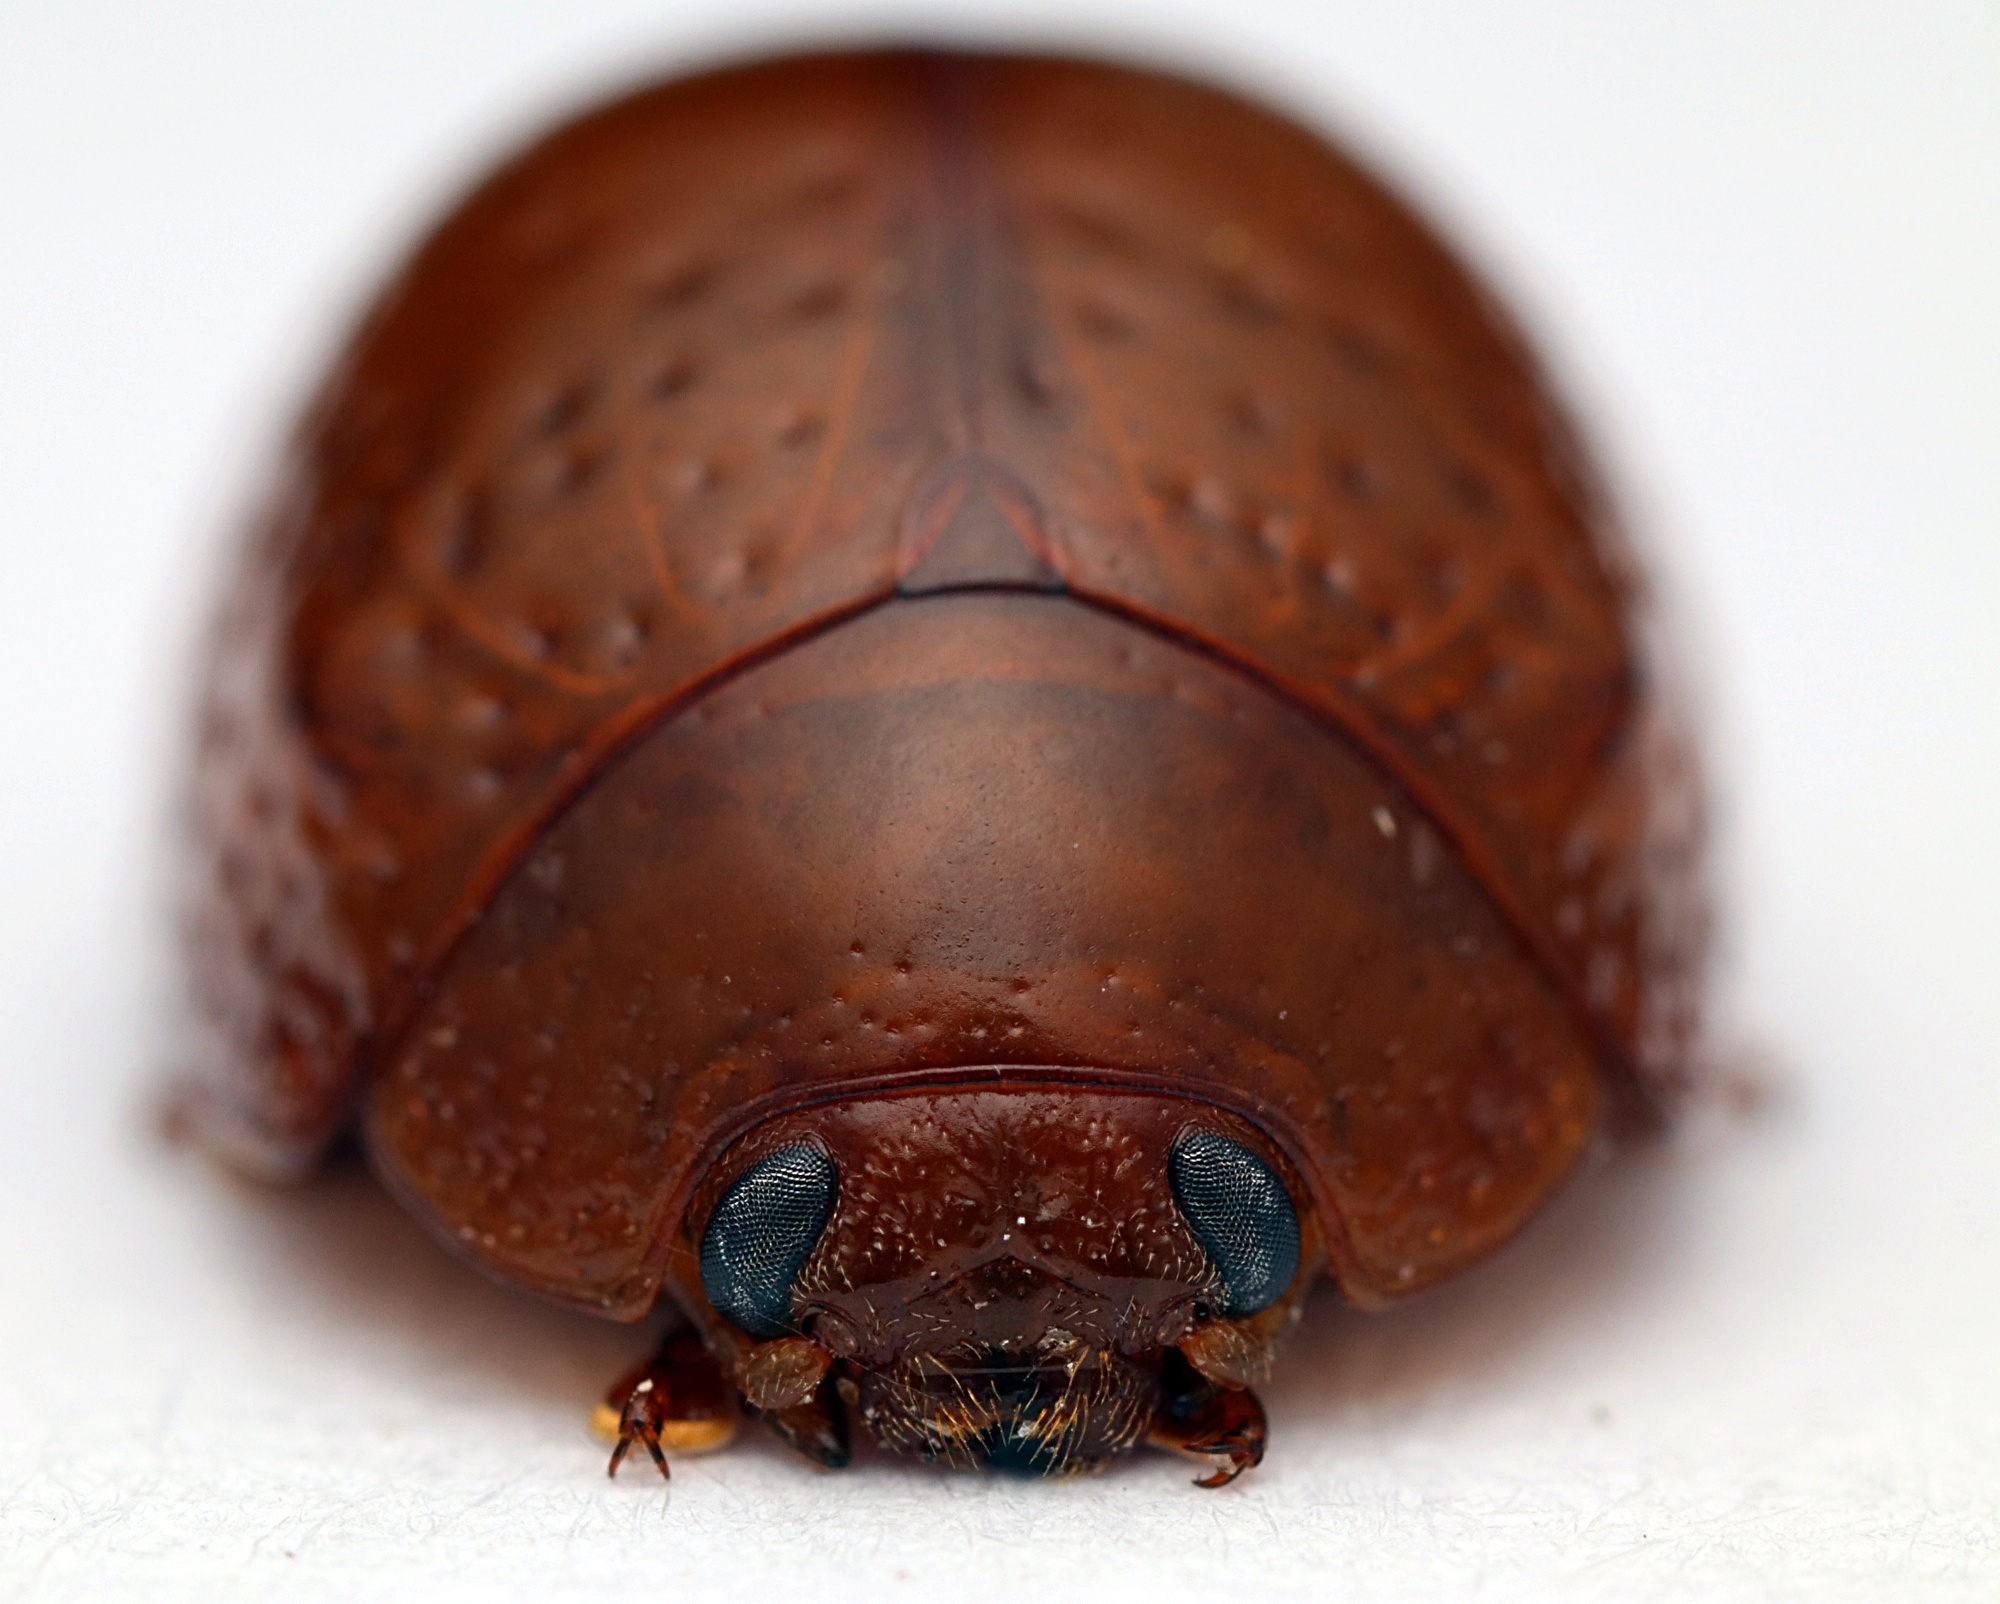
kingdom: Animalia
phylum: Arthropoda
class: Insecta
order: Coleoptera
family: Chrysomelidae
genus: Dicranosterna
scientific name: Dicranosterna
